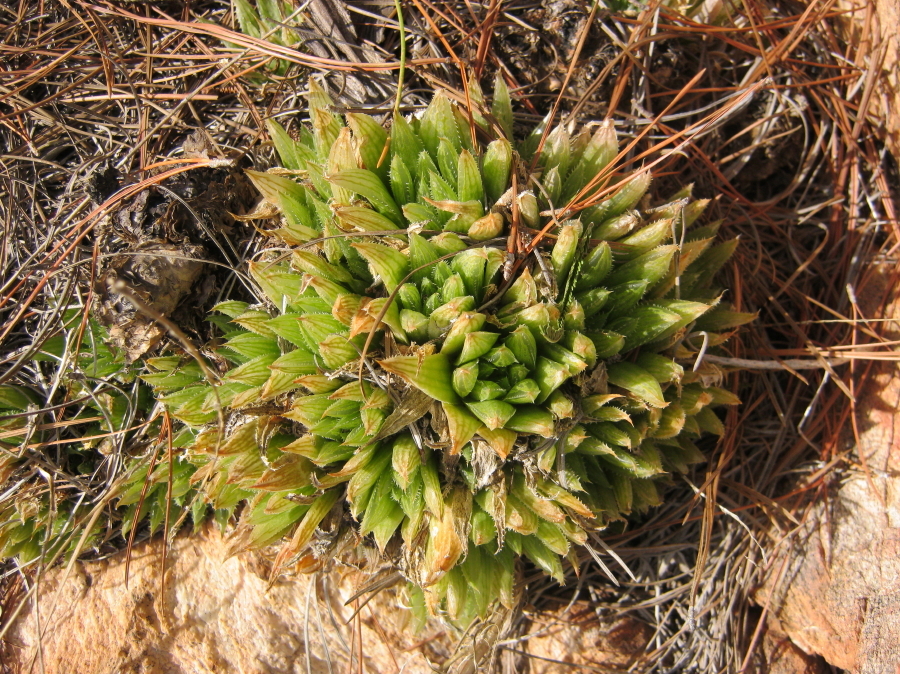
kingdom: Plantae
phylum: Tracheophyta
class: Liliopsida
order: Asparagales
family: Asphodelaceae
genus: Haworthia
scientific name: Haworthia outeniquensis
